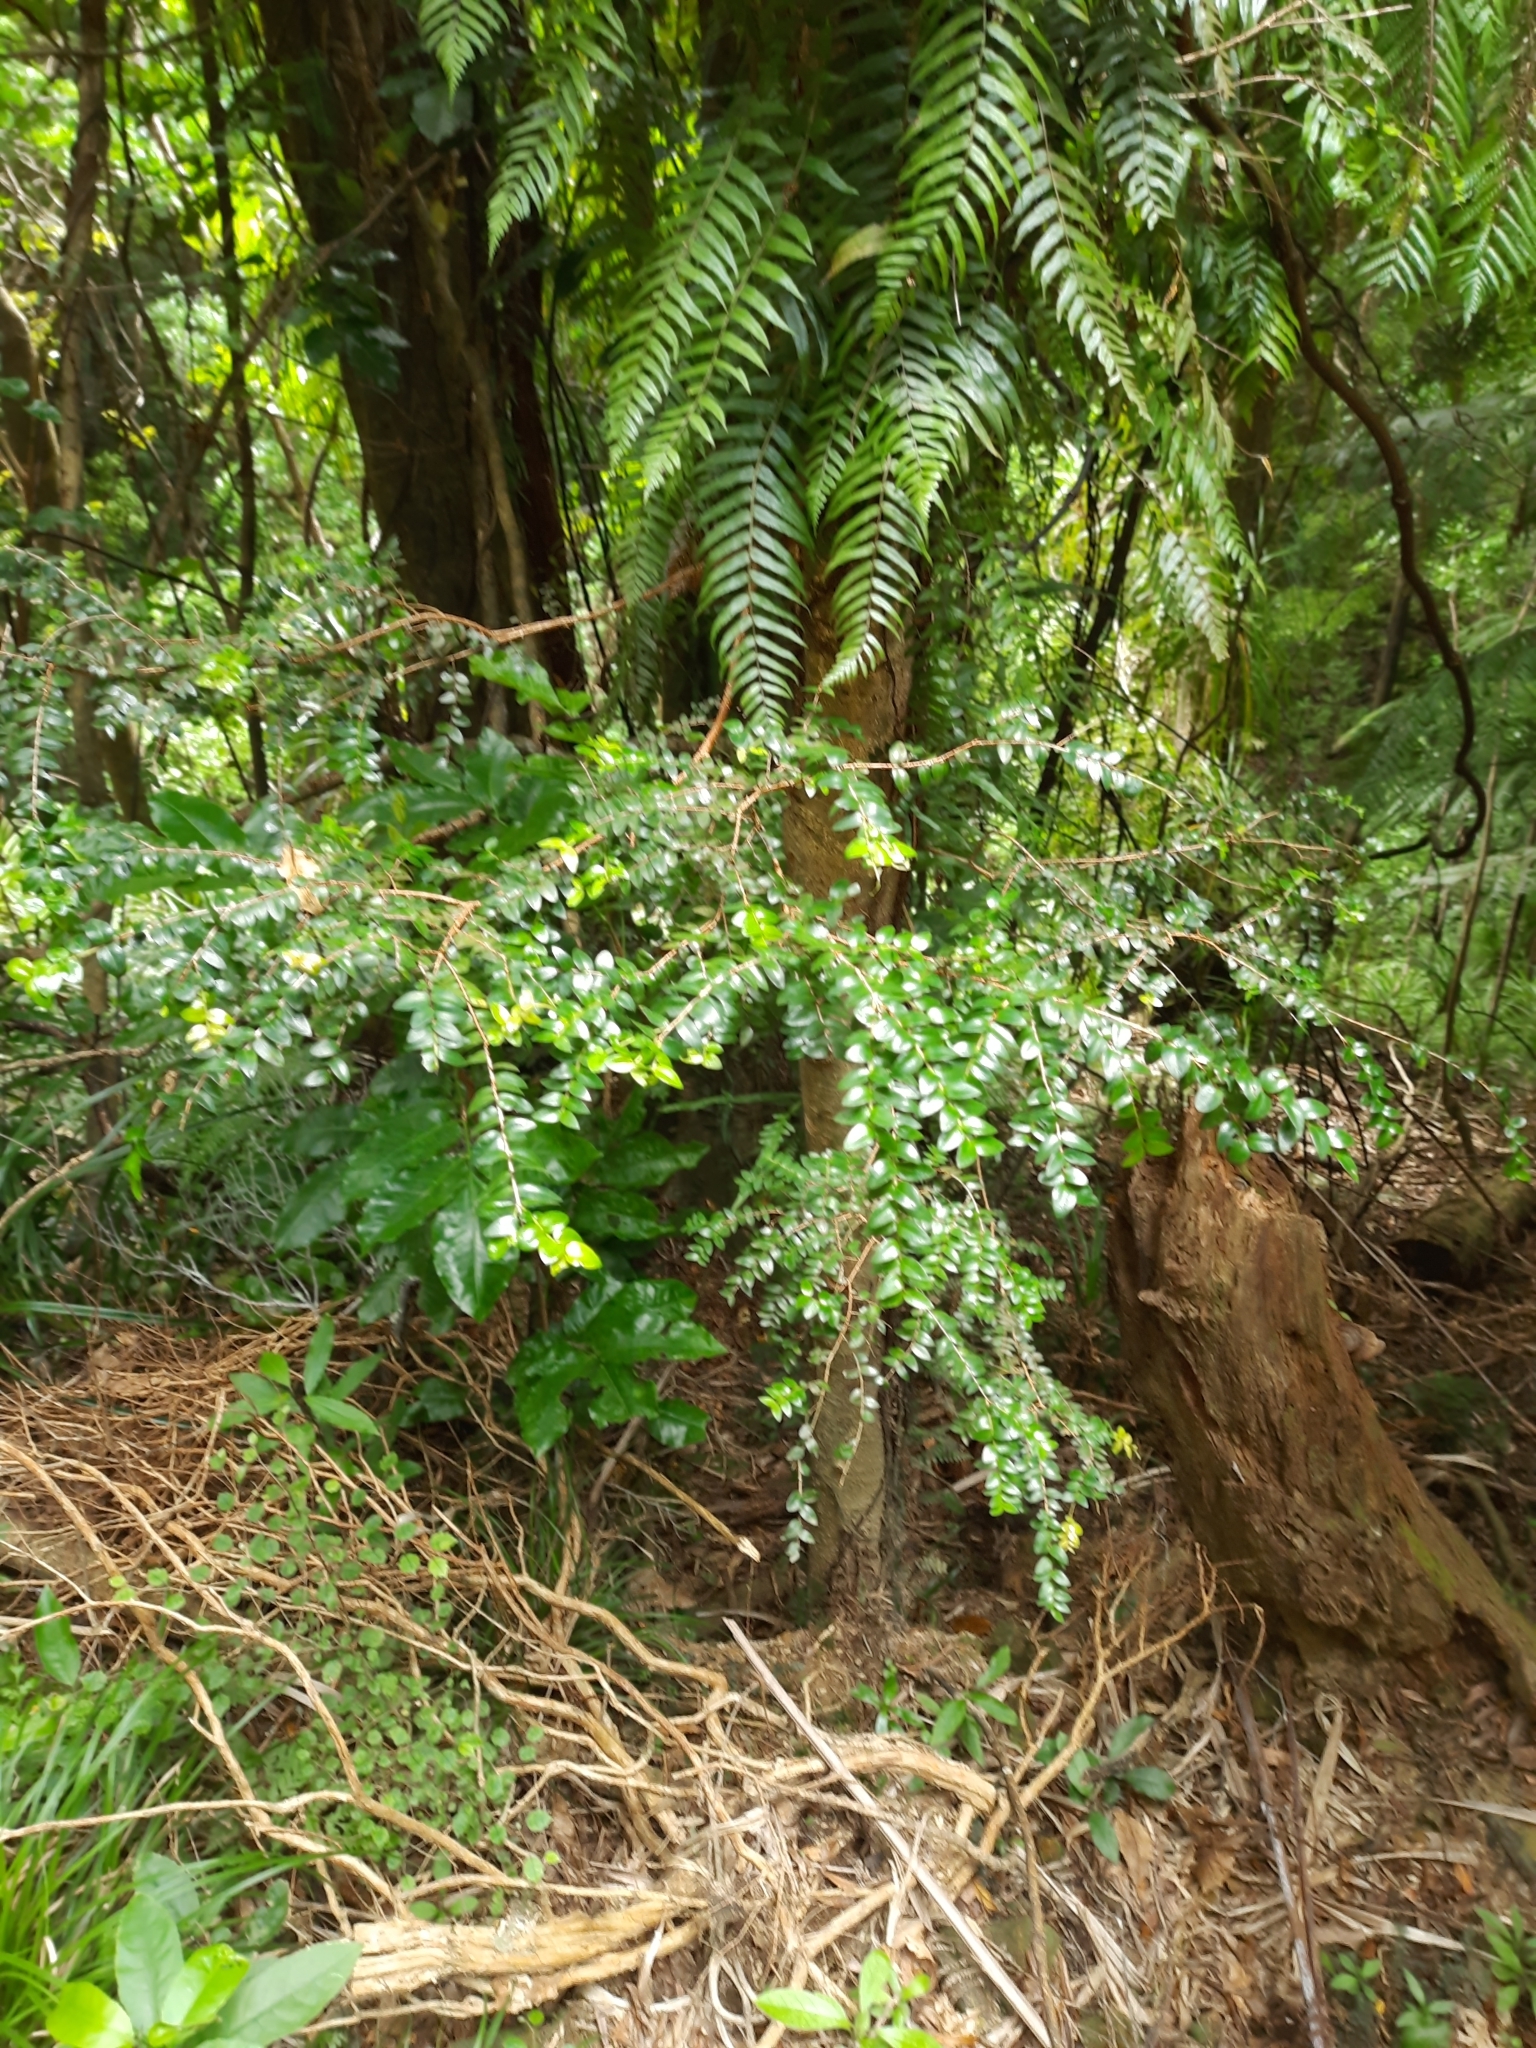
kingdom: Plantae
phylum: Tracheophyta
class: Magnoliopsida
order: Myrtales
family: Myrtaceae
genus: Metrosideros
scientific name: Metrosideros diffusa
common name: Small ratavine
